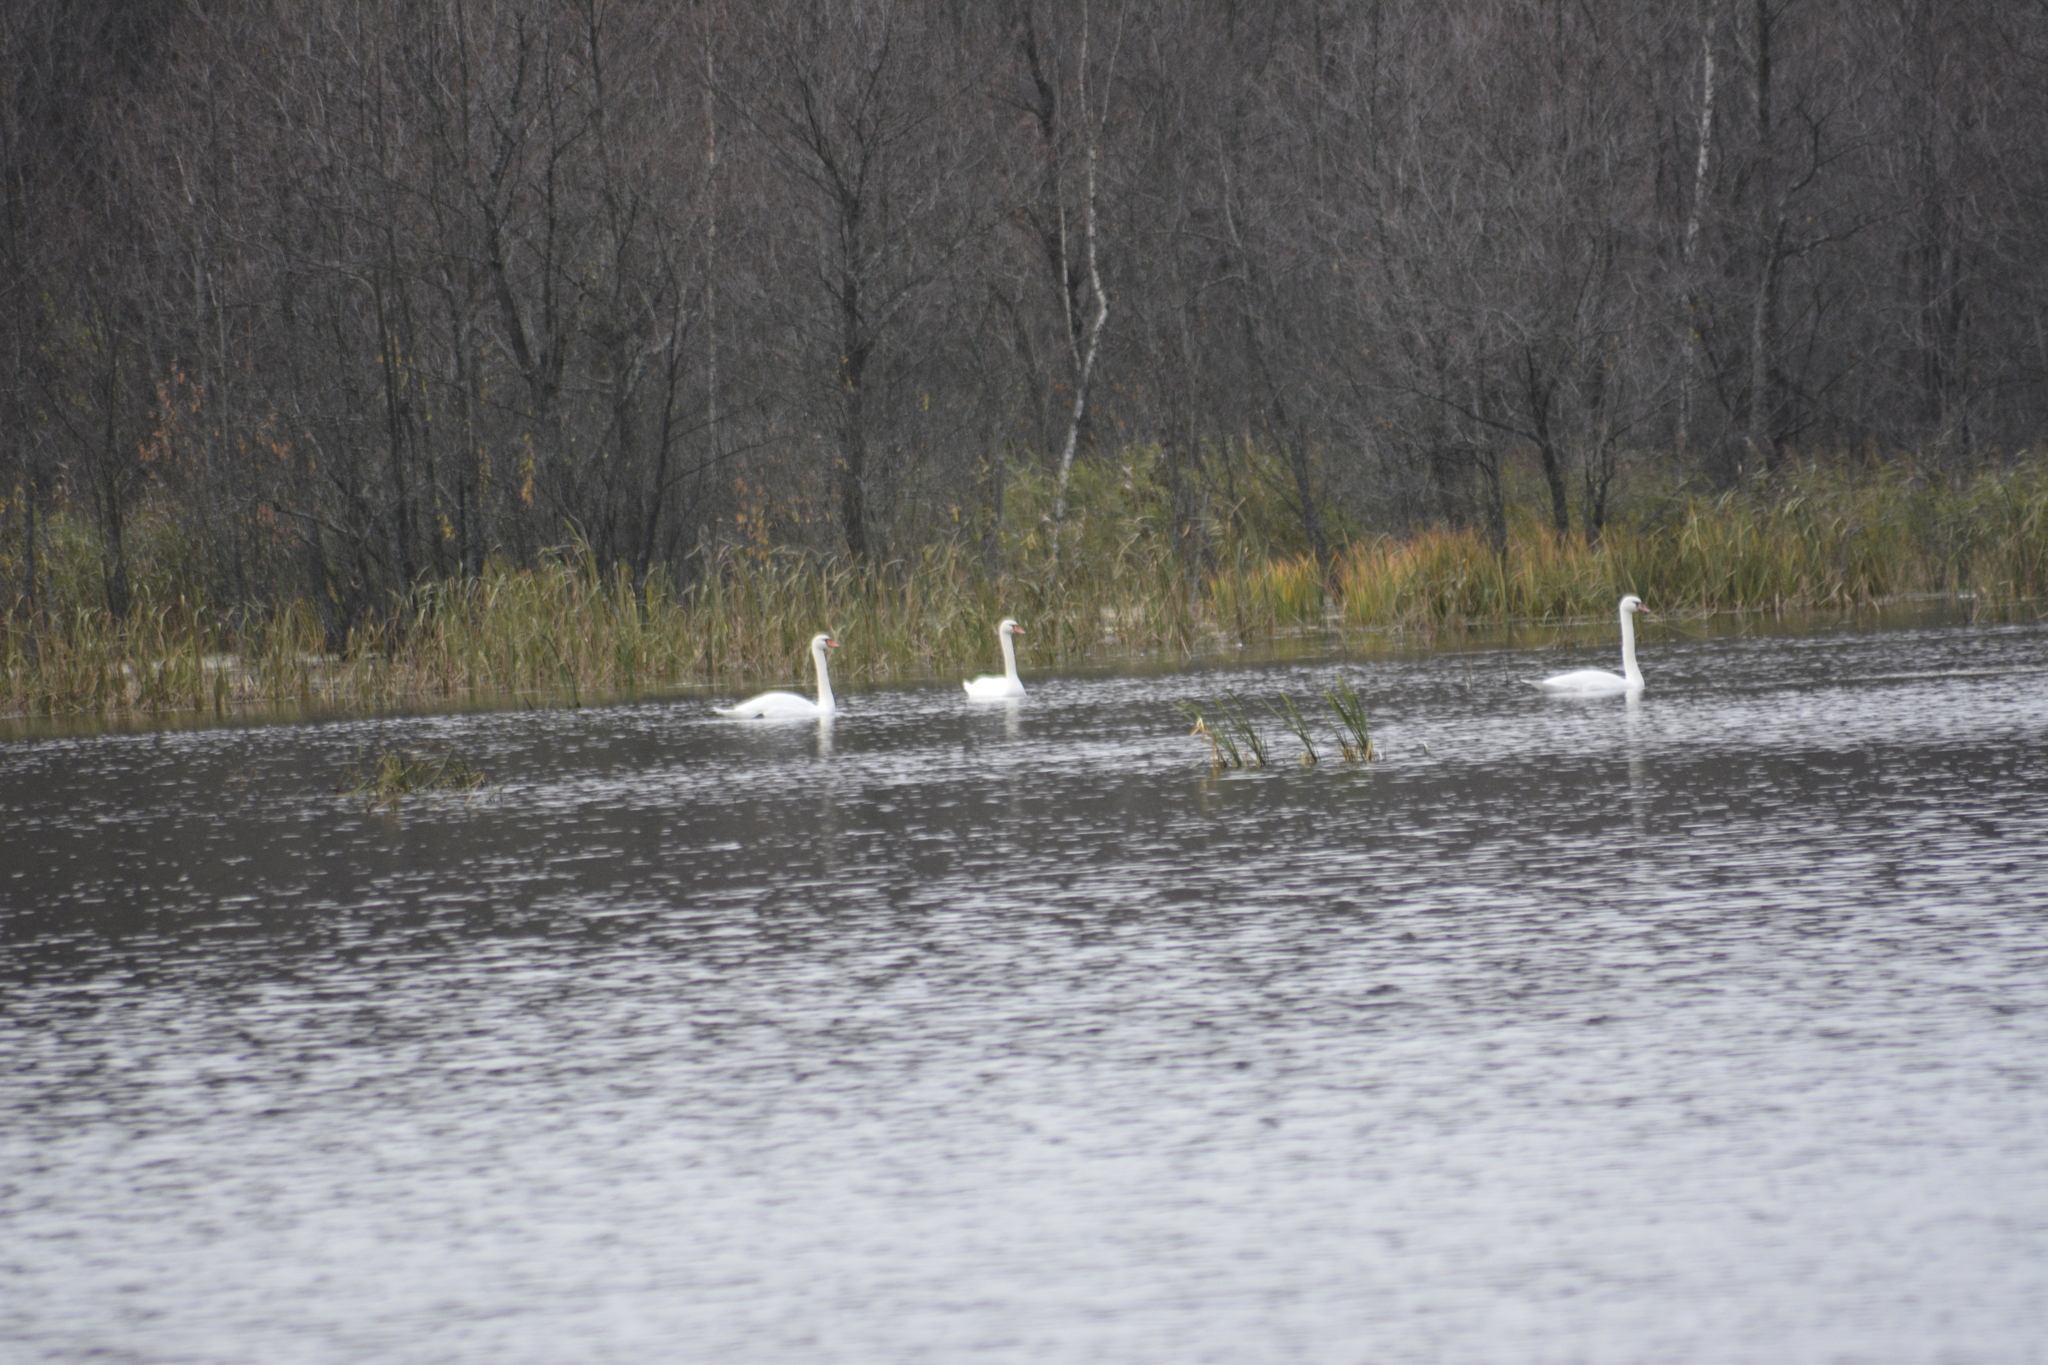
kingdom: Animalia
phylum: Chordata
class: Aves
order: Anseriformes
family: Anatidae
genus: Cygnus
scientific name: Cygnus olor
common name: Mute swan
